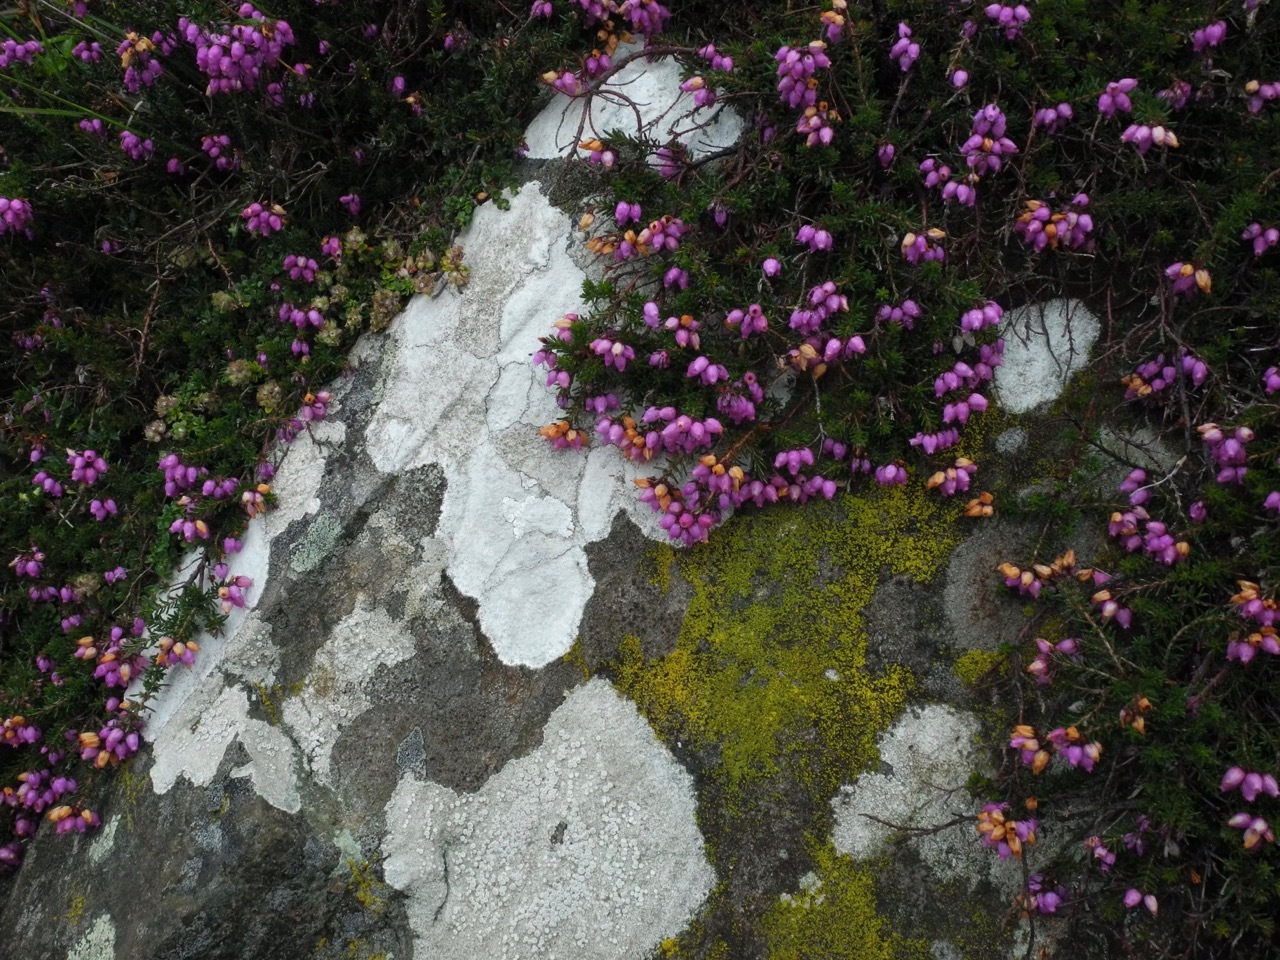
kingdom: Plantae
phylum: Tracheophyta
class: Magnoliopsida
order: Ericales
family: Ericaceae
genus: Erica
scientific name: Erica cinerea
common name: Bell heather
